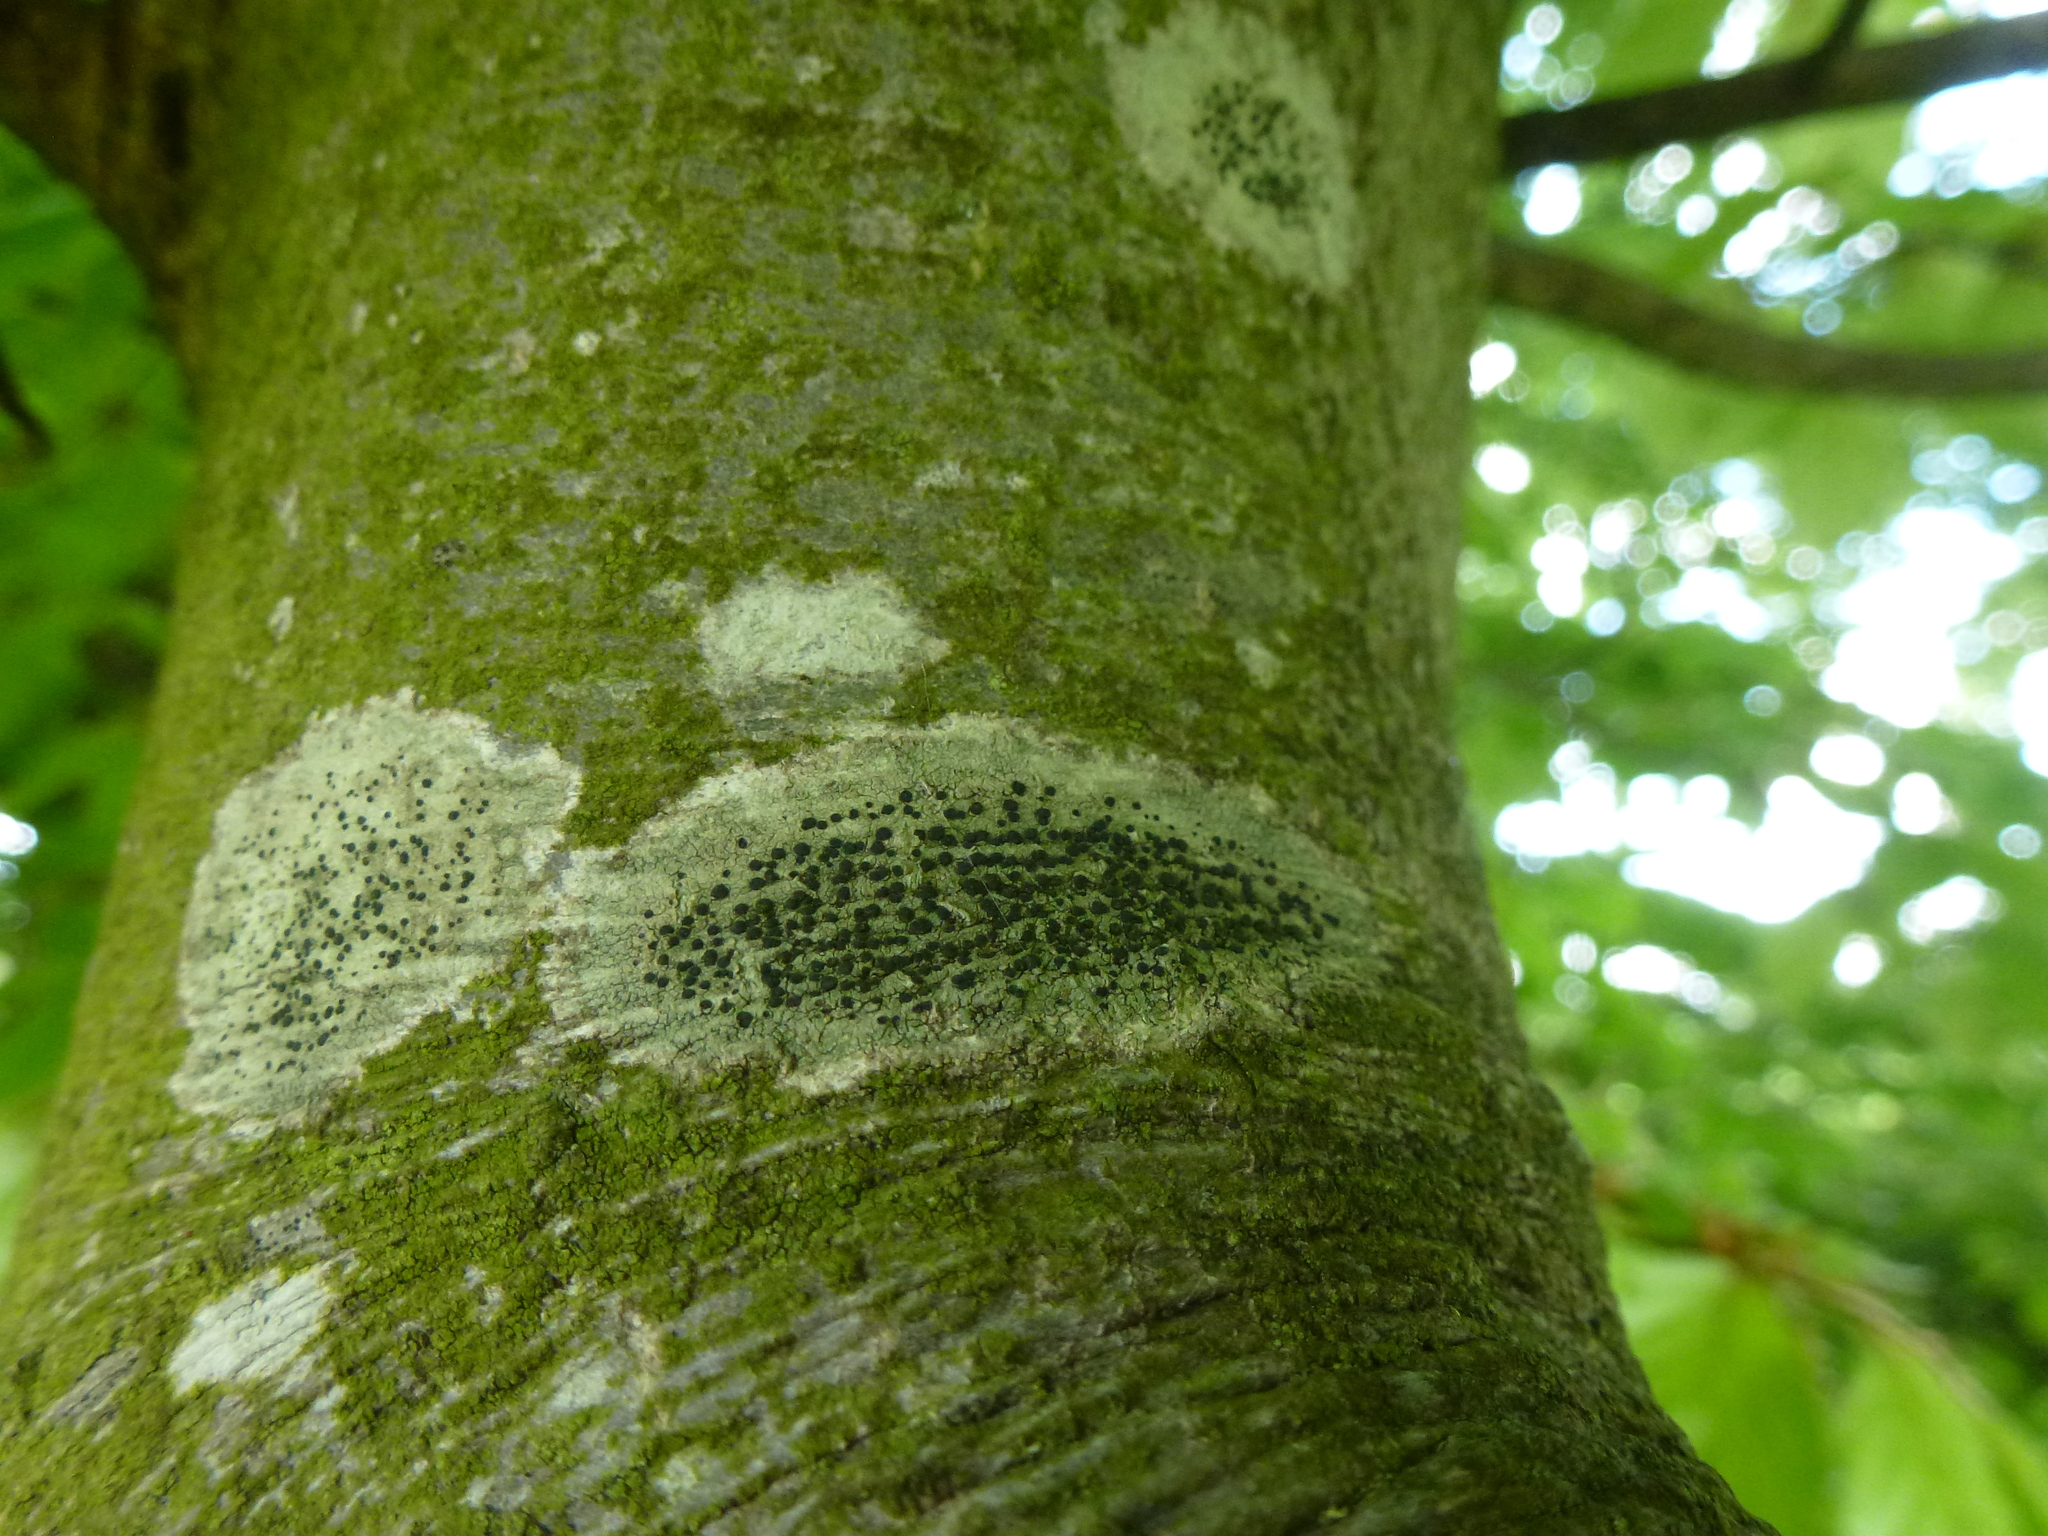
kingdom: Fungi
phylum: Ascomycota
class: Lecanoromycetes
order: Lecanorales
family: Lecanoraceae
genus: Lecidella
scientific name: Lecidella elaeochroma
